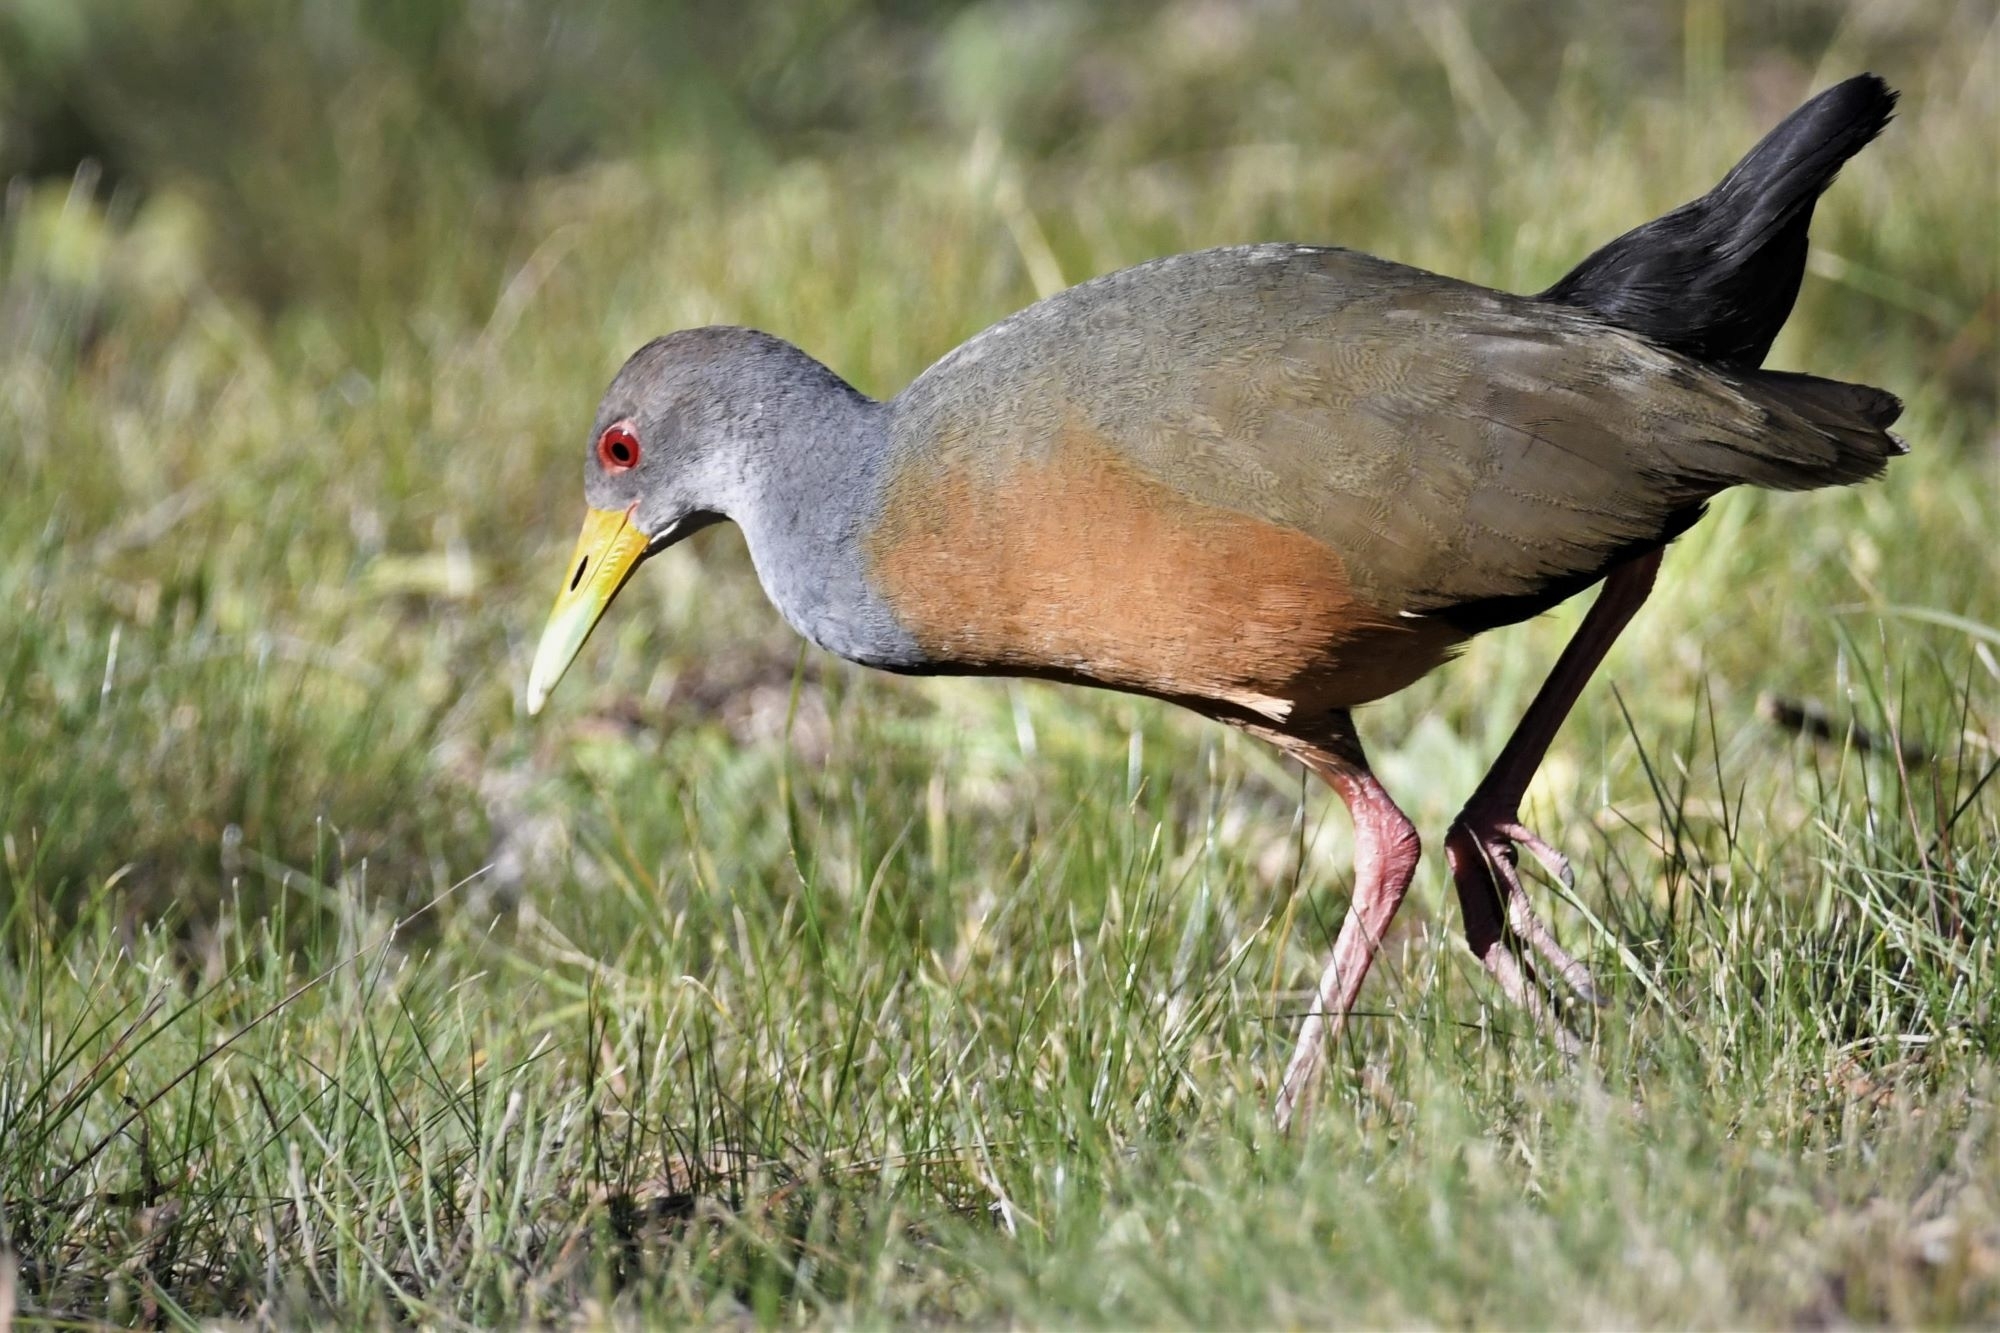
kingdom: Animalia
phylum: Chordata
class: Aves
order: Gruiformes
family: Rallidae
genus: Aramides
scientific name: Aramides cajanea
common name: Gray-necked wood-rail
